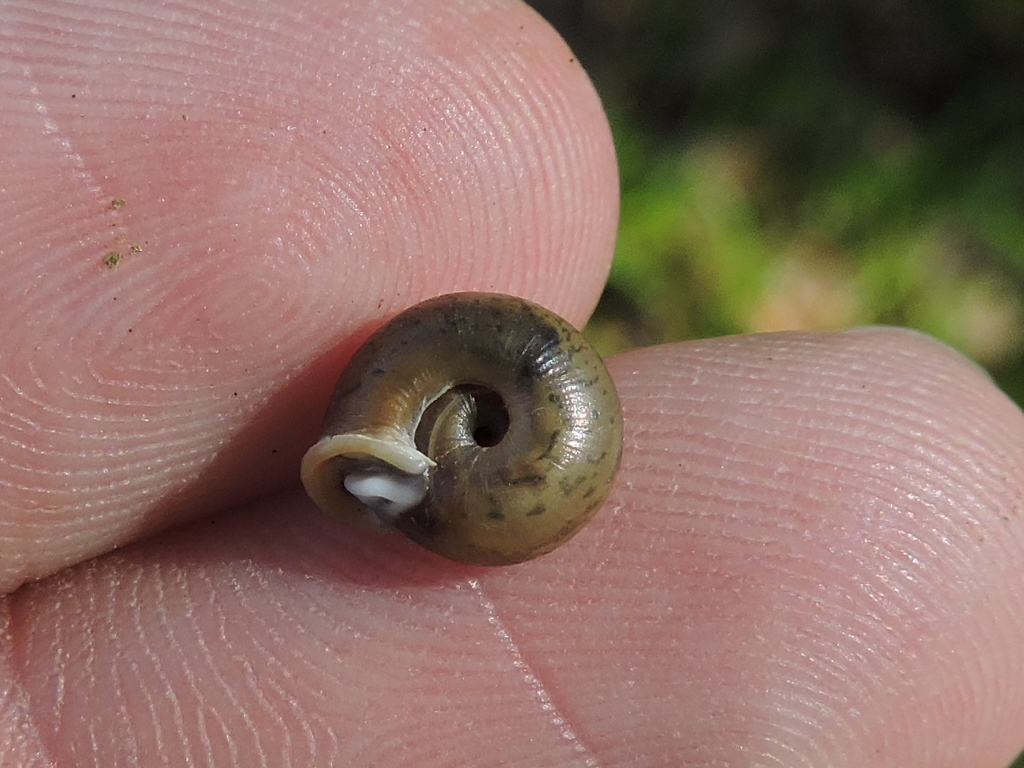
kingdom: Animalia
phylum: Mollusca
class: Gastropoda
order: Stylommatophora
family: Polygyridae
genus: Daedalochila
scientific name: Daedalochila dorfeuilliana
